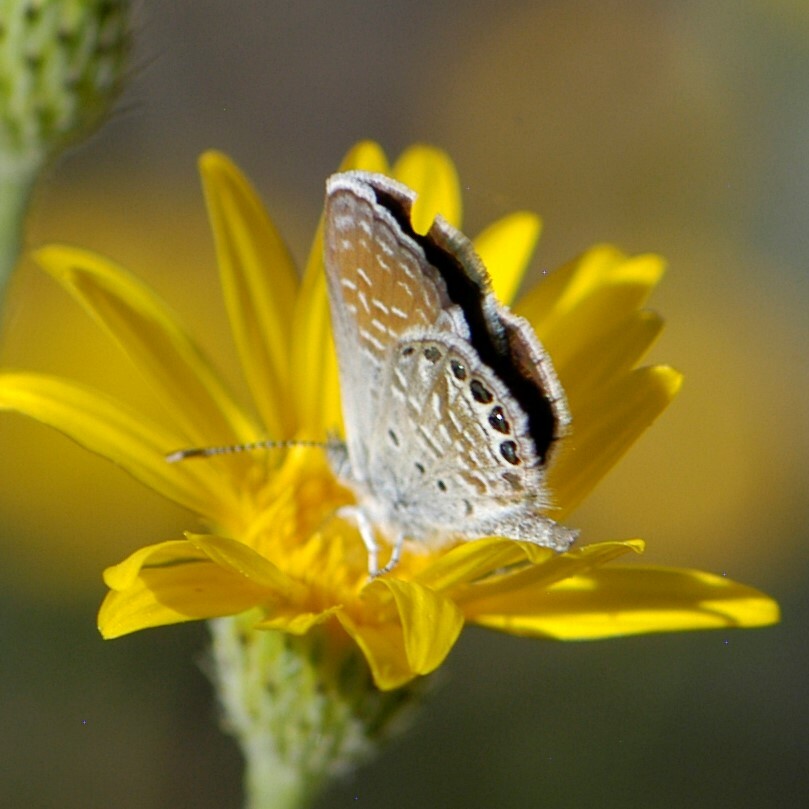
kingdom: Animalia
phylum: Arthropoda
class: Insecta
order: Lepidoptera
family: Lycaenidae
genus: Brephidium
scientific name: Brephidium exilis
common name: Pygmy blue
